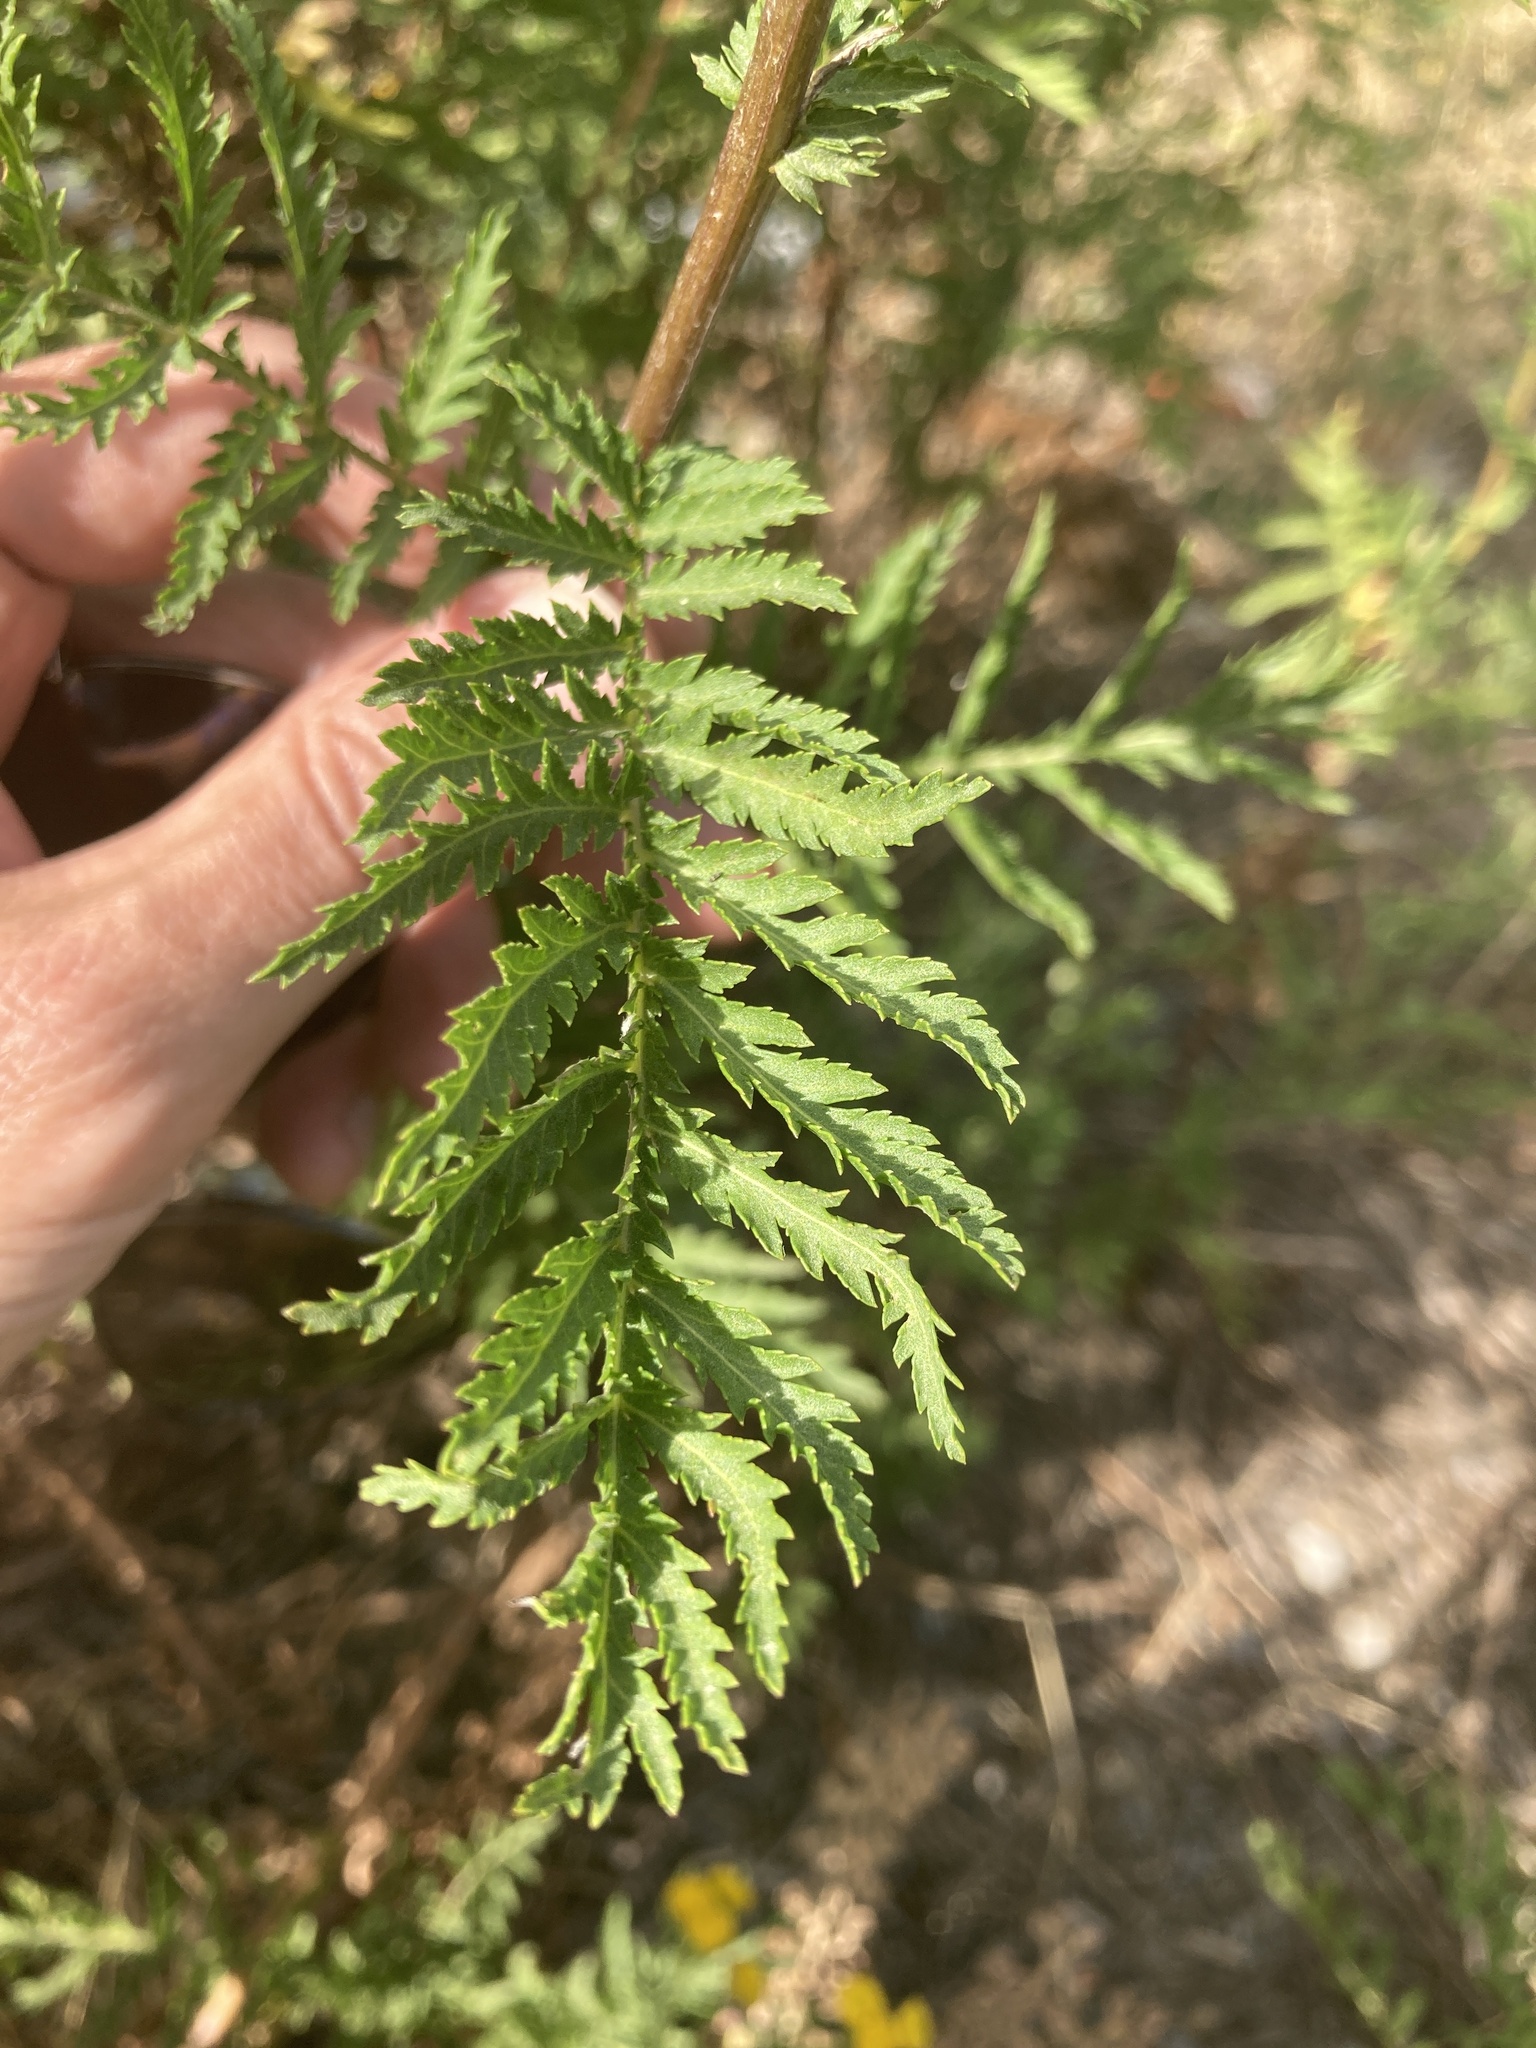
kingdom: Plantae
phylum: Tracheophyta
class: Magnoliopsida
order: Asterales
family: Asteraceae
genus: Tanacetum
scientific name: Tanacetum vulgare
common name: Common tansy
